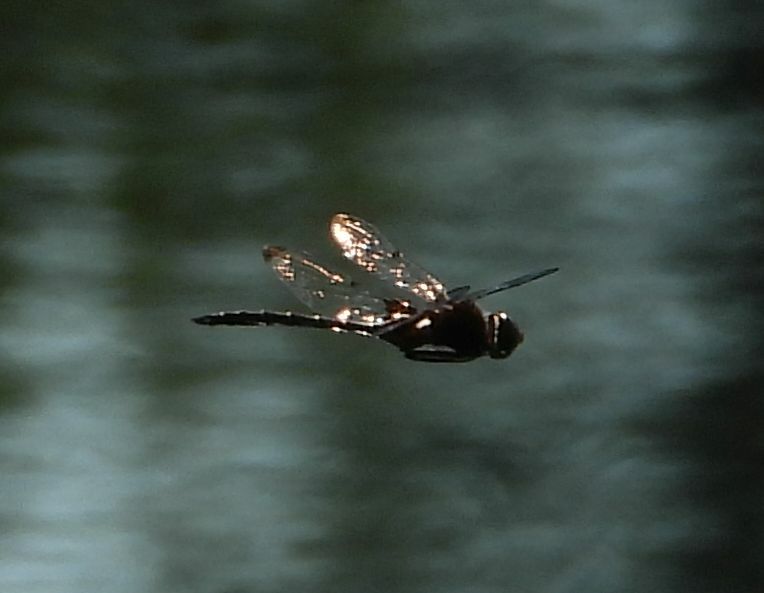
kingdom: Animalia
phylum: Arthropoda
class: Insecta
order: Odonata
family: Corduliidae
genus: Epitheca
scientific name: Epitheca princeps
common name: Prince baskettail
